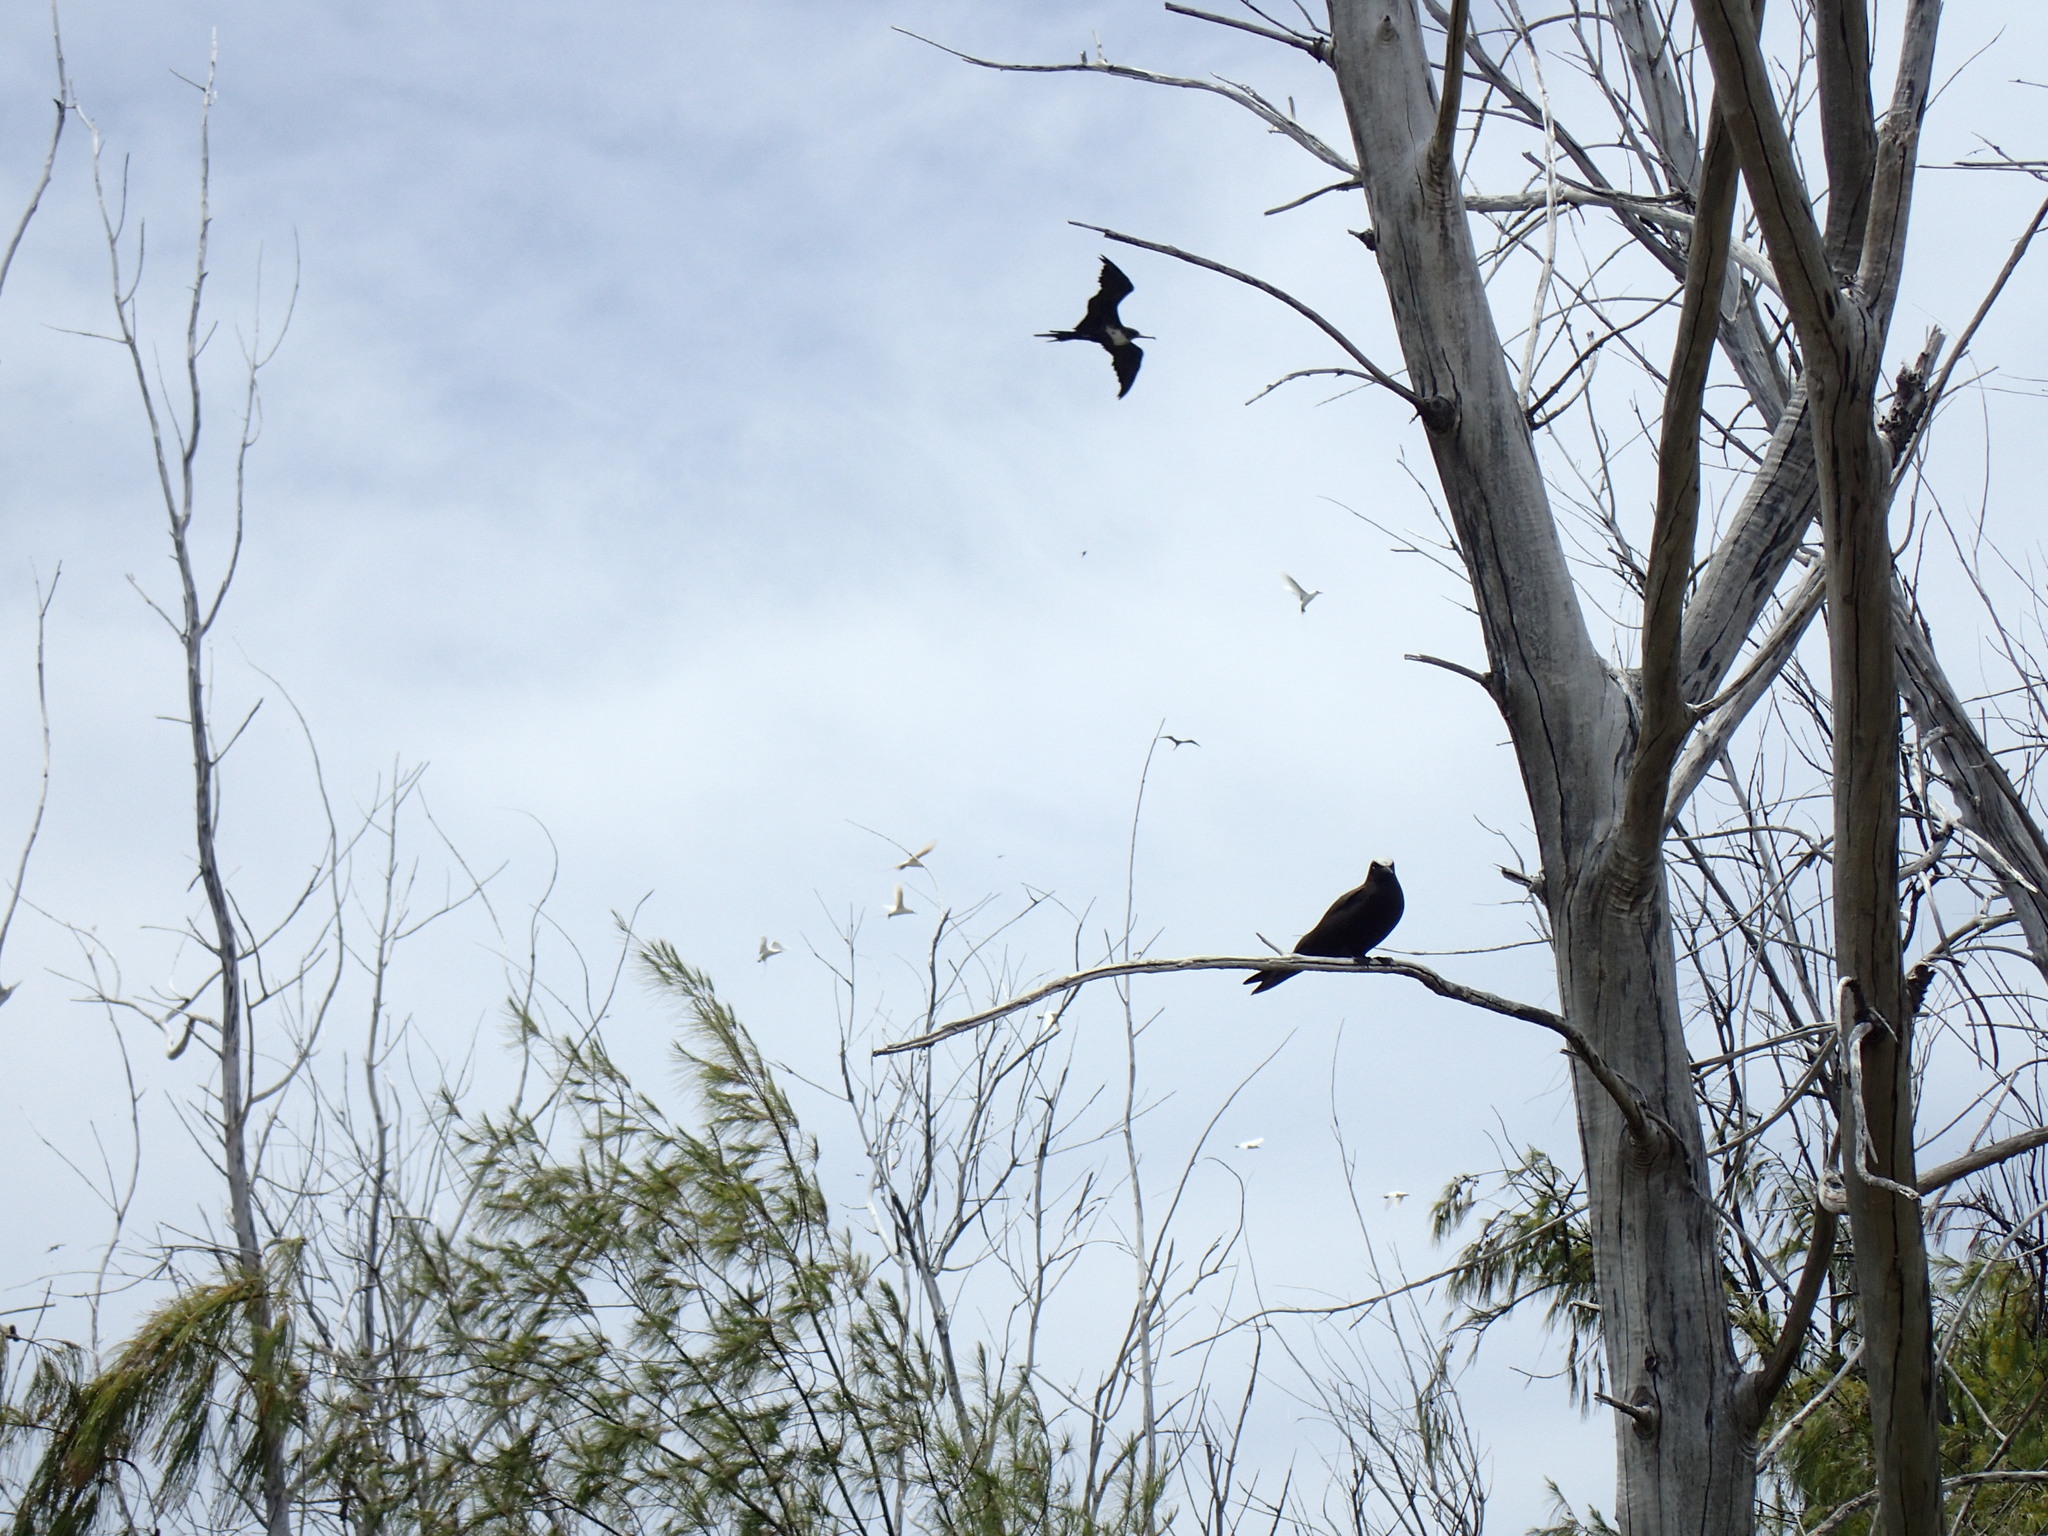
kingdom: Animalia
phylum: Chordata
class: Aves
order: Charadriiformes
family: Laridae
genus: Anous
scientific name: Anous minutus
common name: Black noddy
